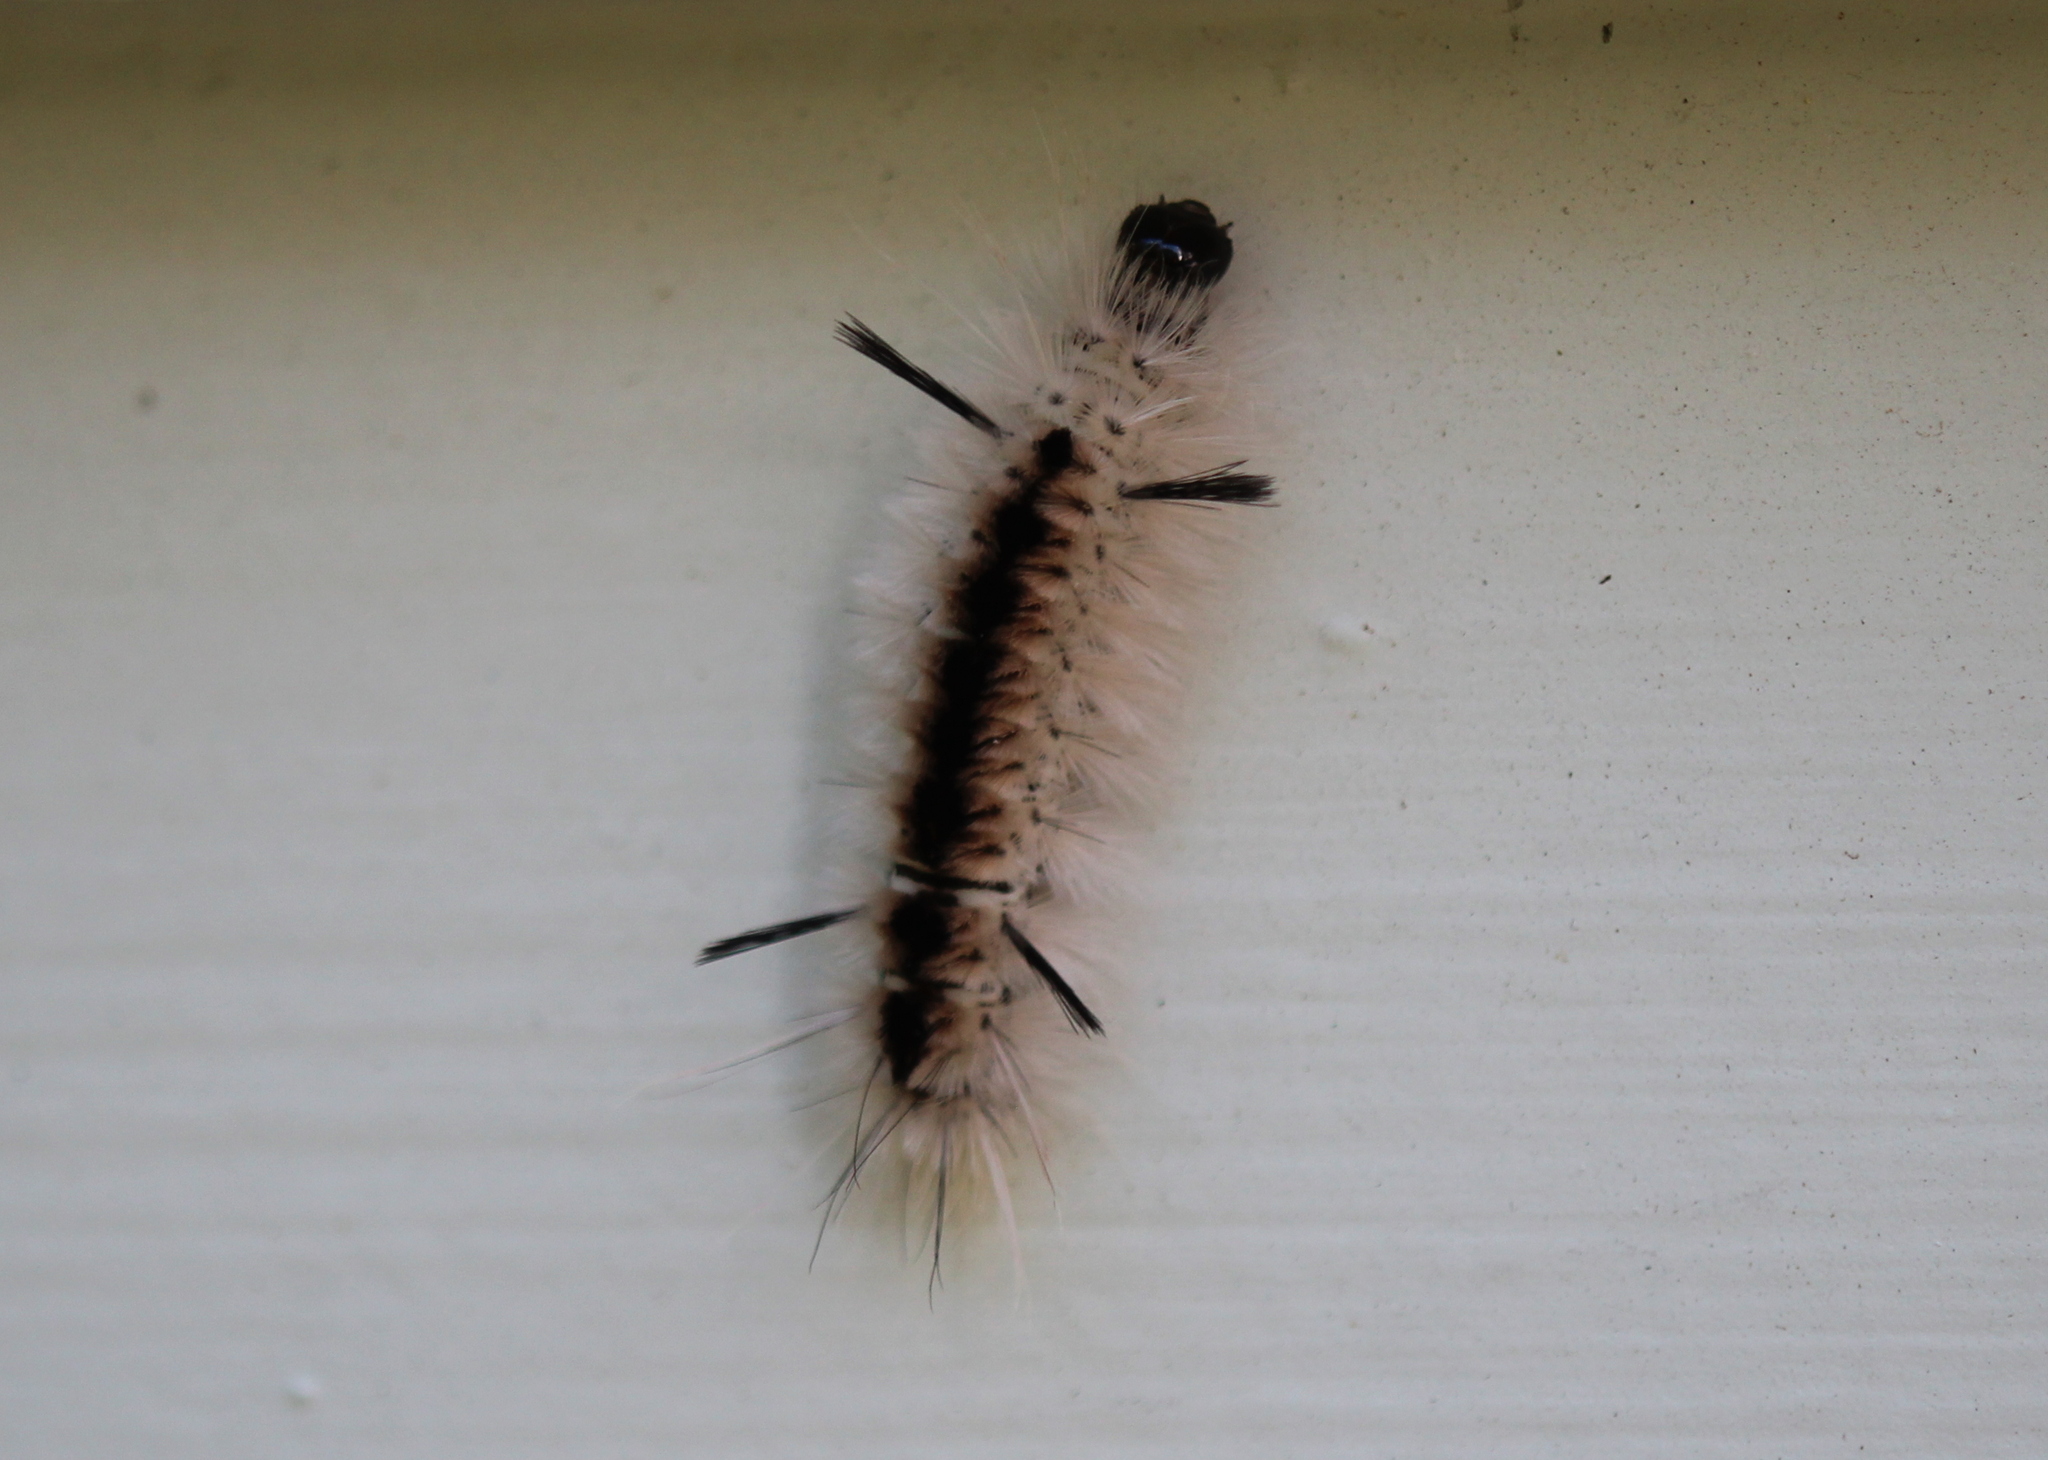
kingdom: Animalia
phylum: Arthropoda
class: Insecta
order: Lepidoptera
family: Erebidae
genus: Lophocampa
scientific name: Lophocampa caryae
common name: Hickory tussock moth
